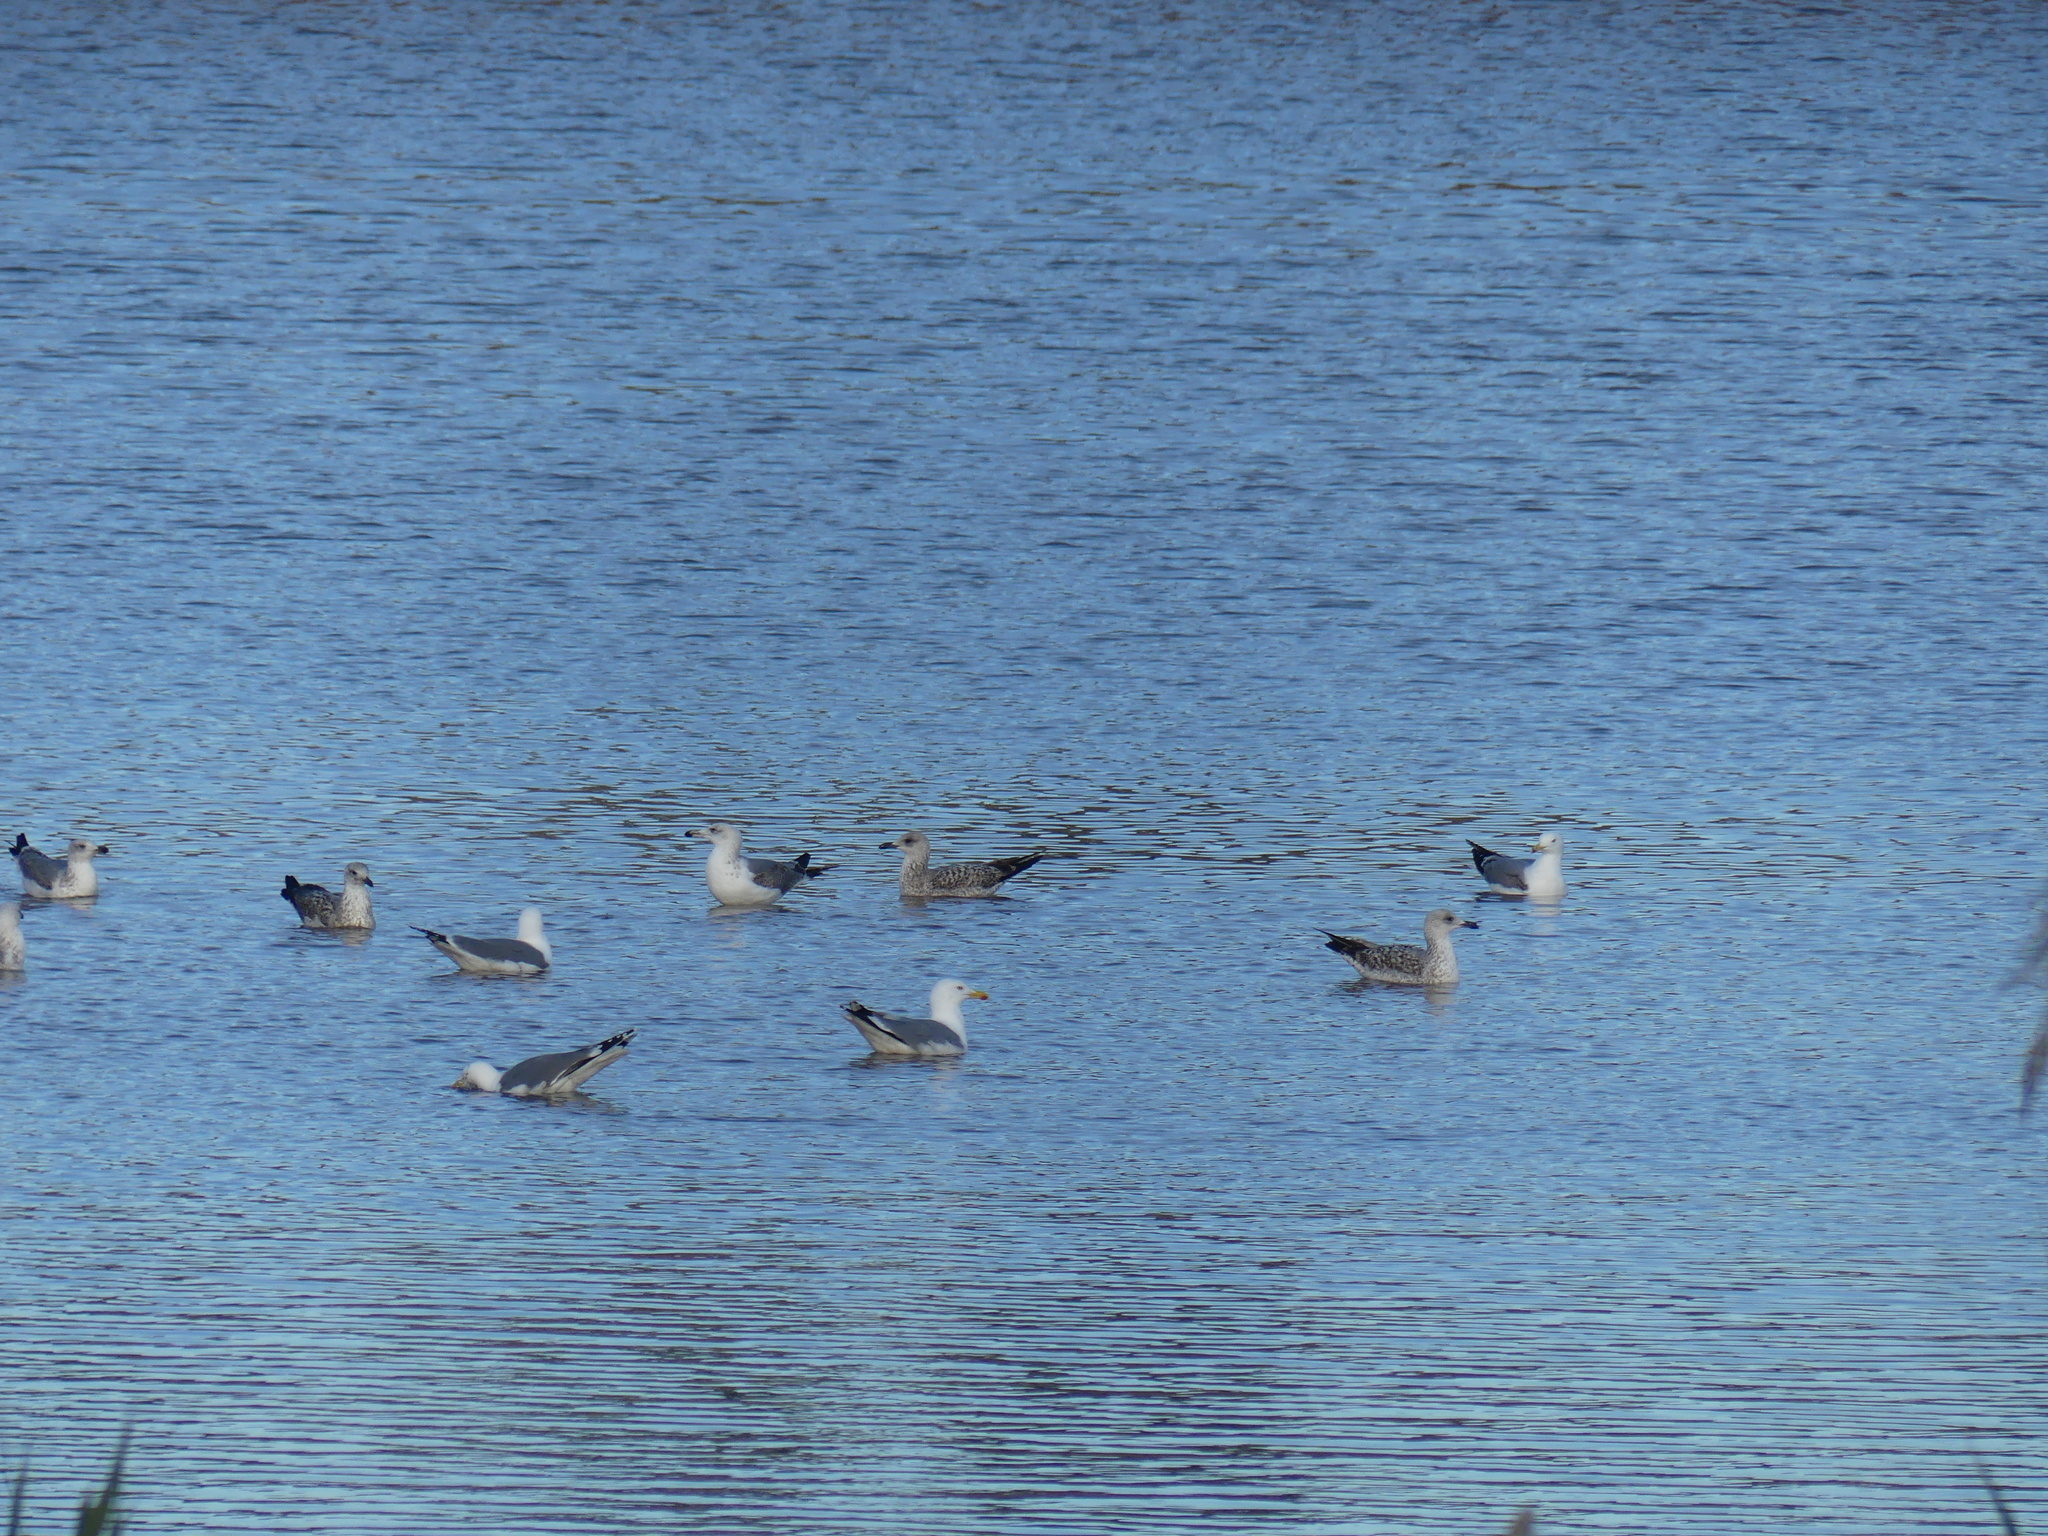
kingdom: Animalia
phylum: Chordata
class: Aves
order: Charadriiformes
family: Laridae
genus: Larus
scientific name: Larus michahellis
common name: Yellow-legged gull
